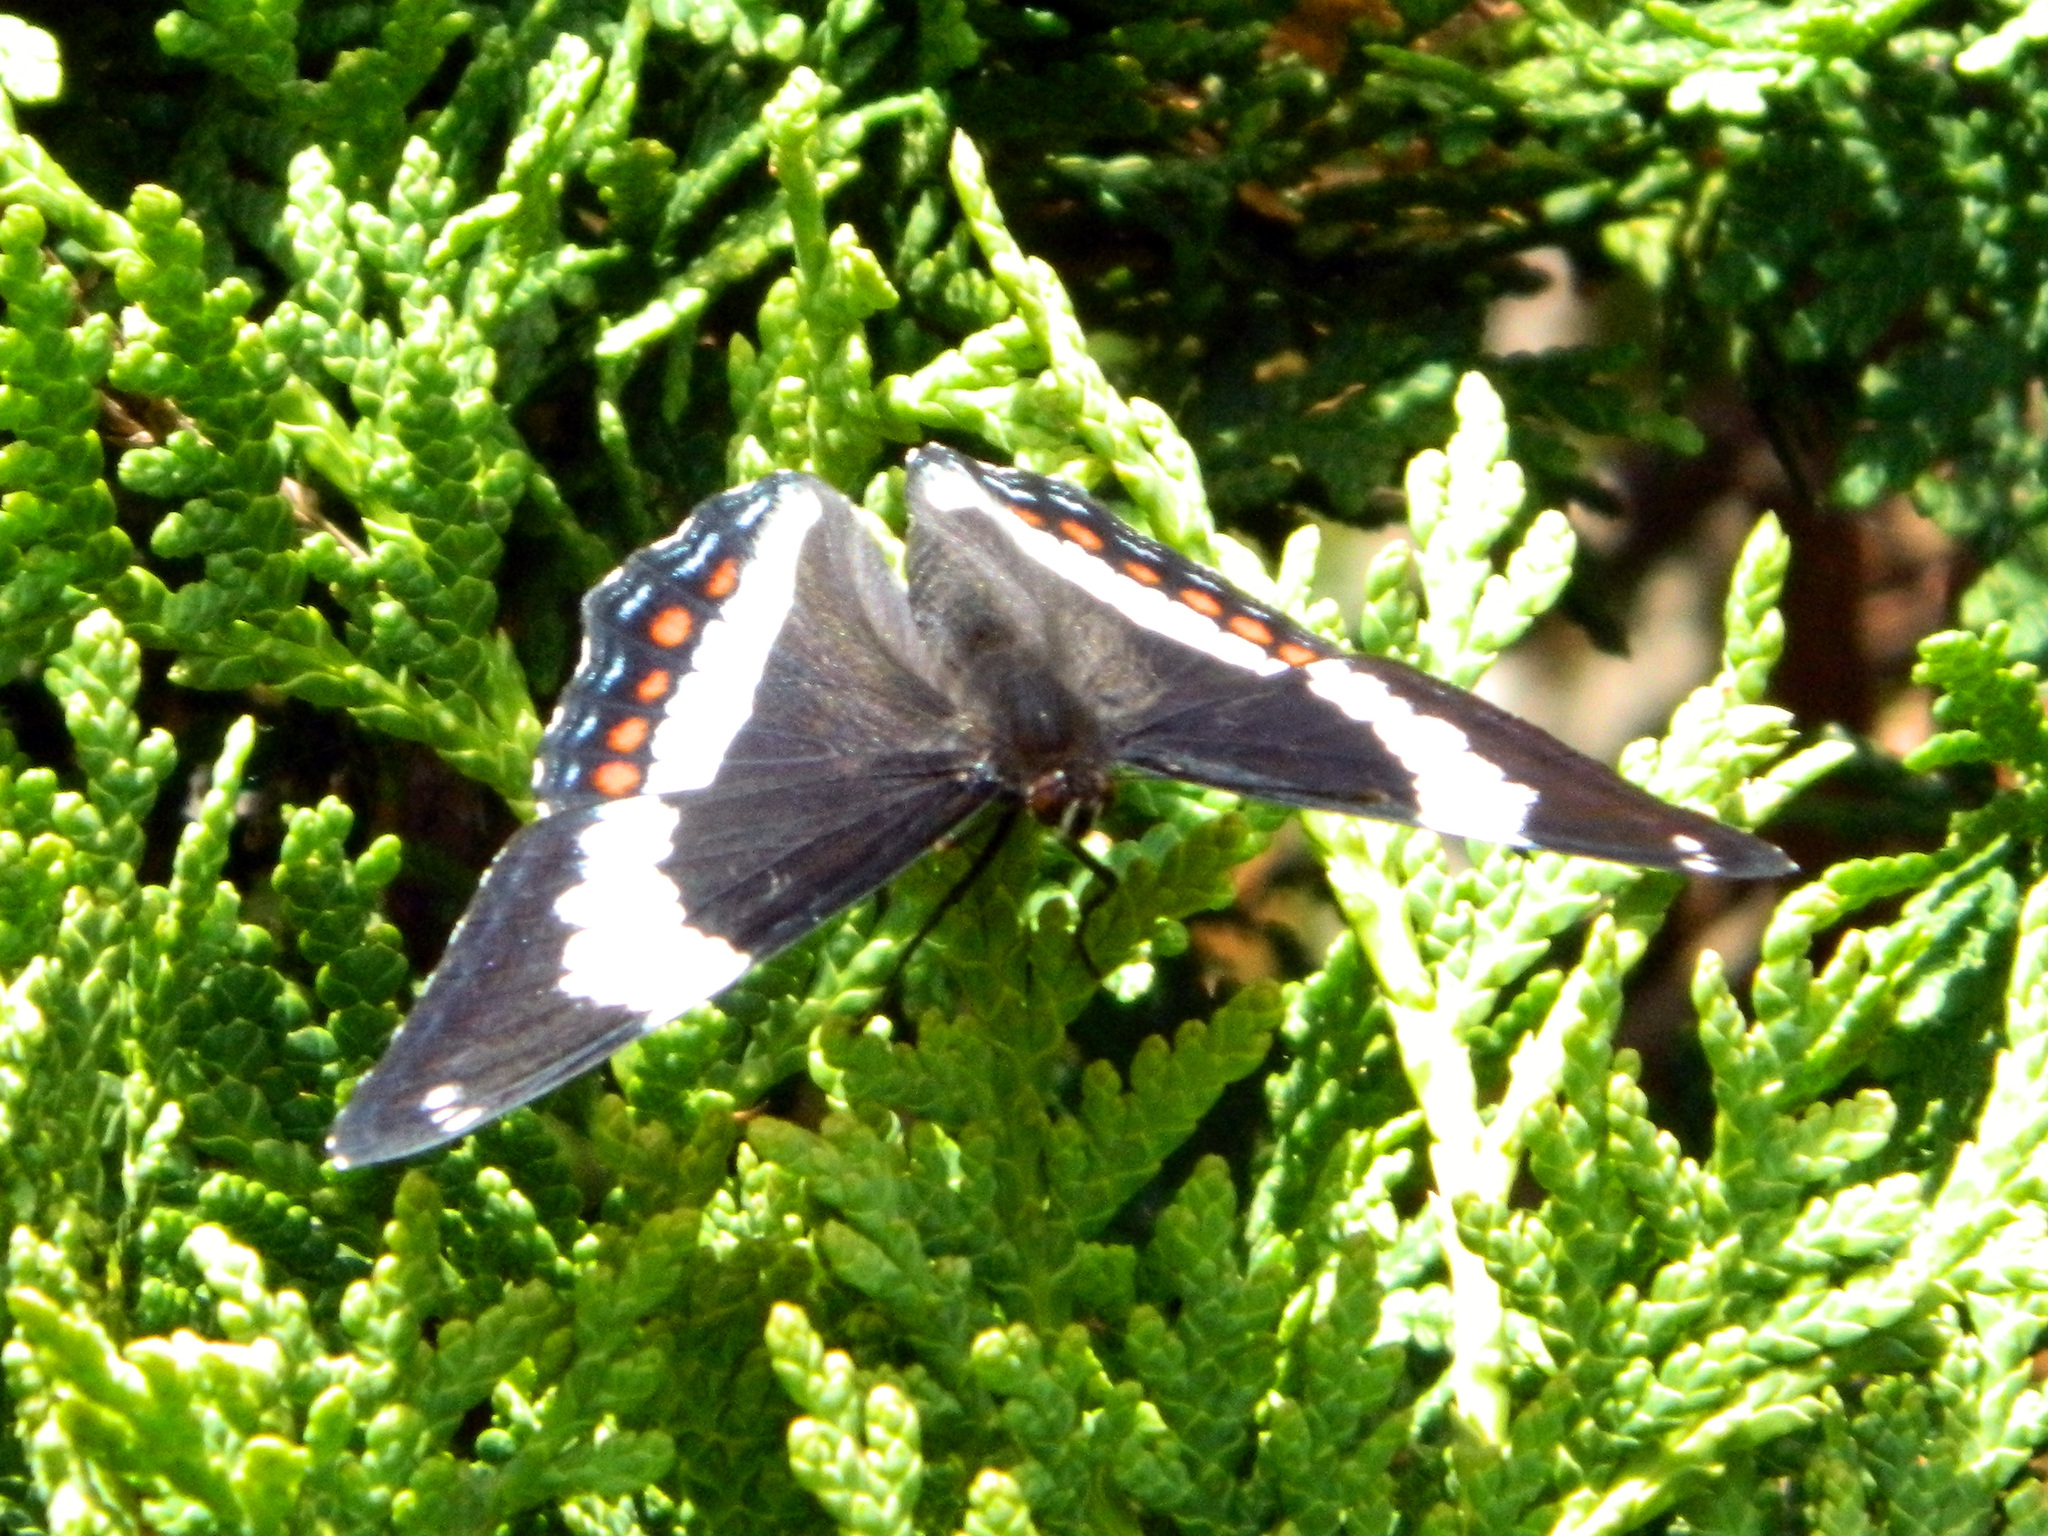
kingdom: Animalia
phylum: Arthropoda
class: Insecta
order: Lepidoptera
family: Nymphalidae
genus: Limenitis
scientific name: Limenitis arthemis
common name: Red-spotted admiral
